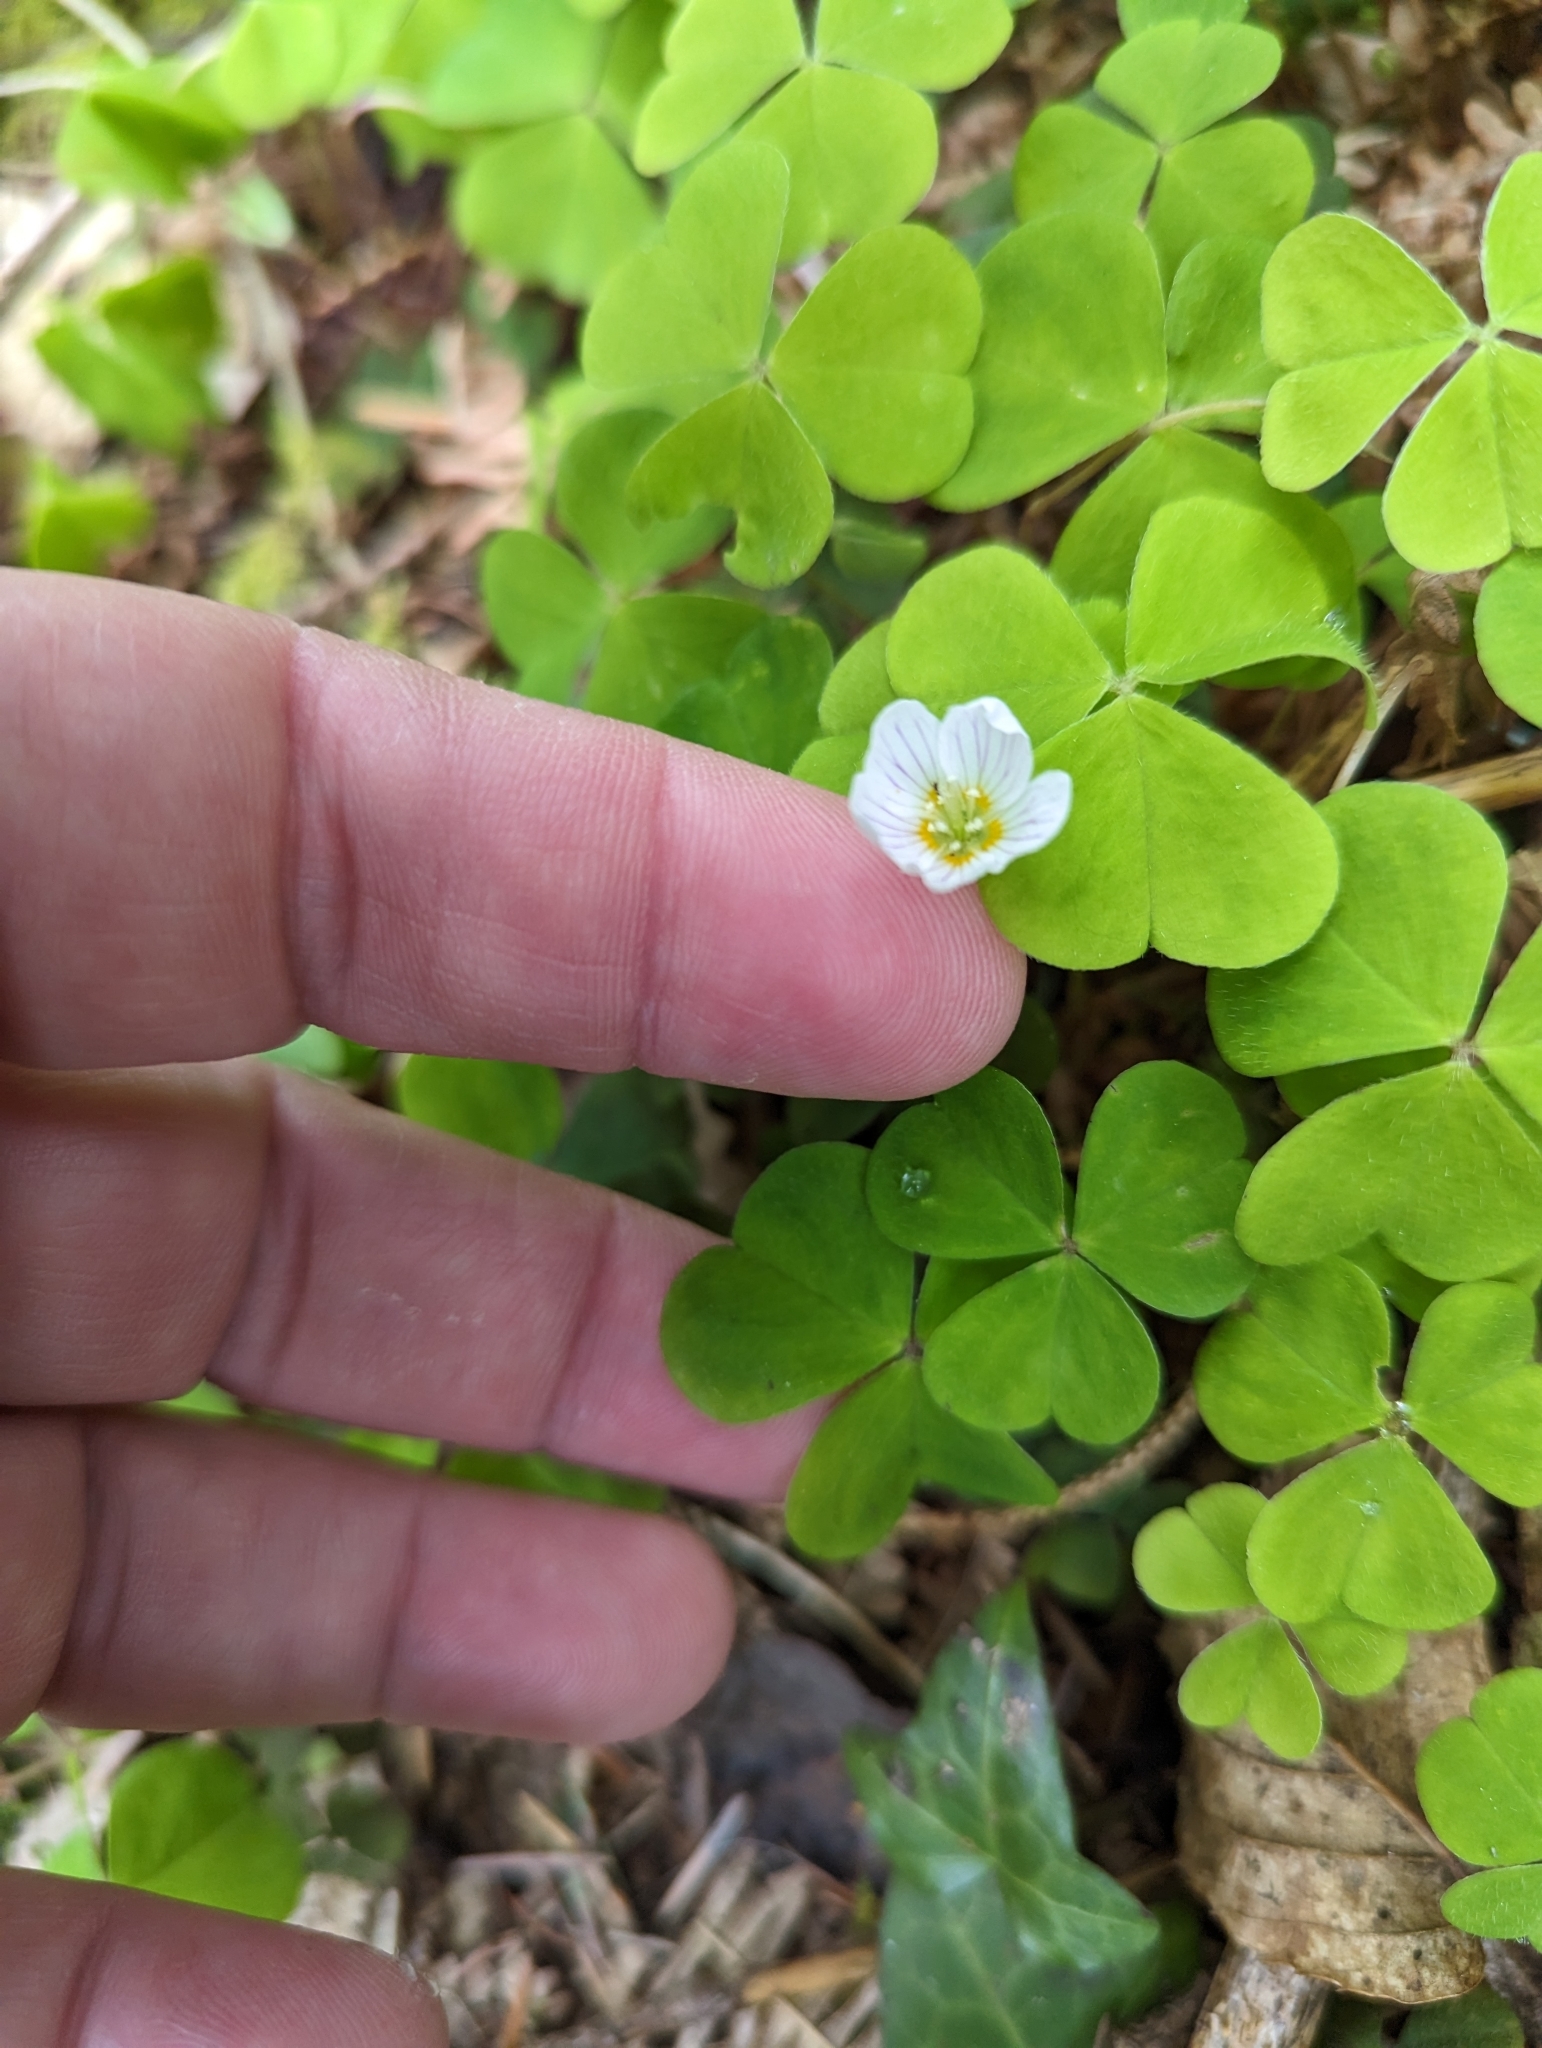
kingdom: Plantae
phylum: Tracheophyta
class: Magnoliopsida
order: Oxalidales
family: Oxalidaceae
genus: Oxalis
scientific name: Oxalis acetosella
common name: Wood-sorrel
